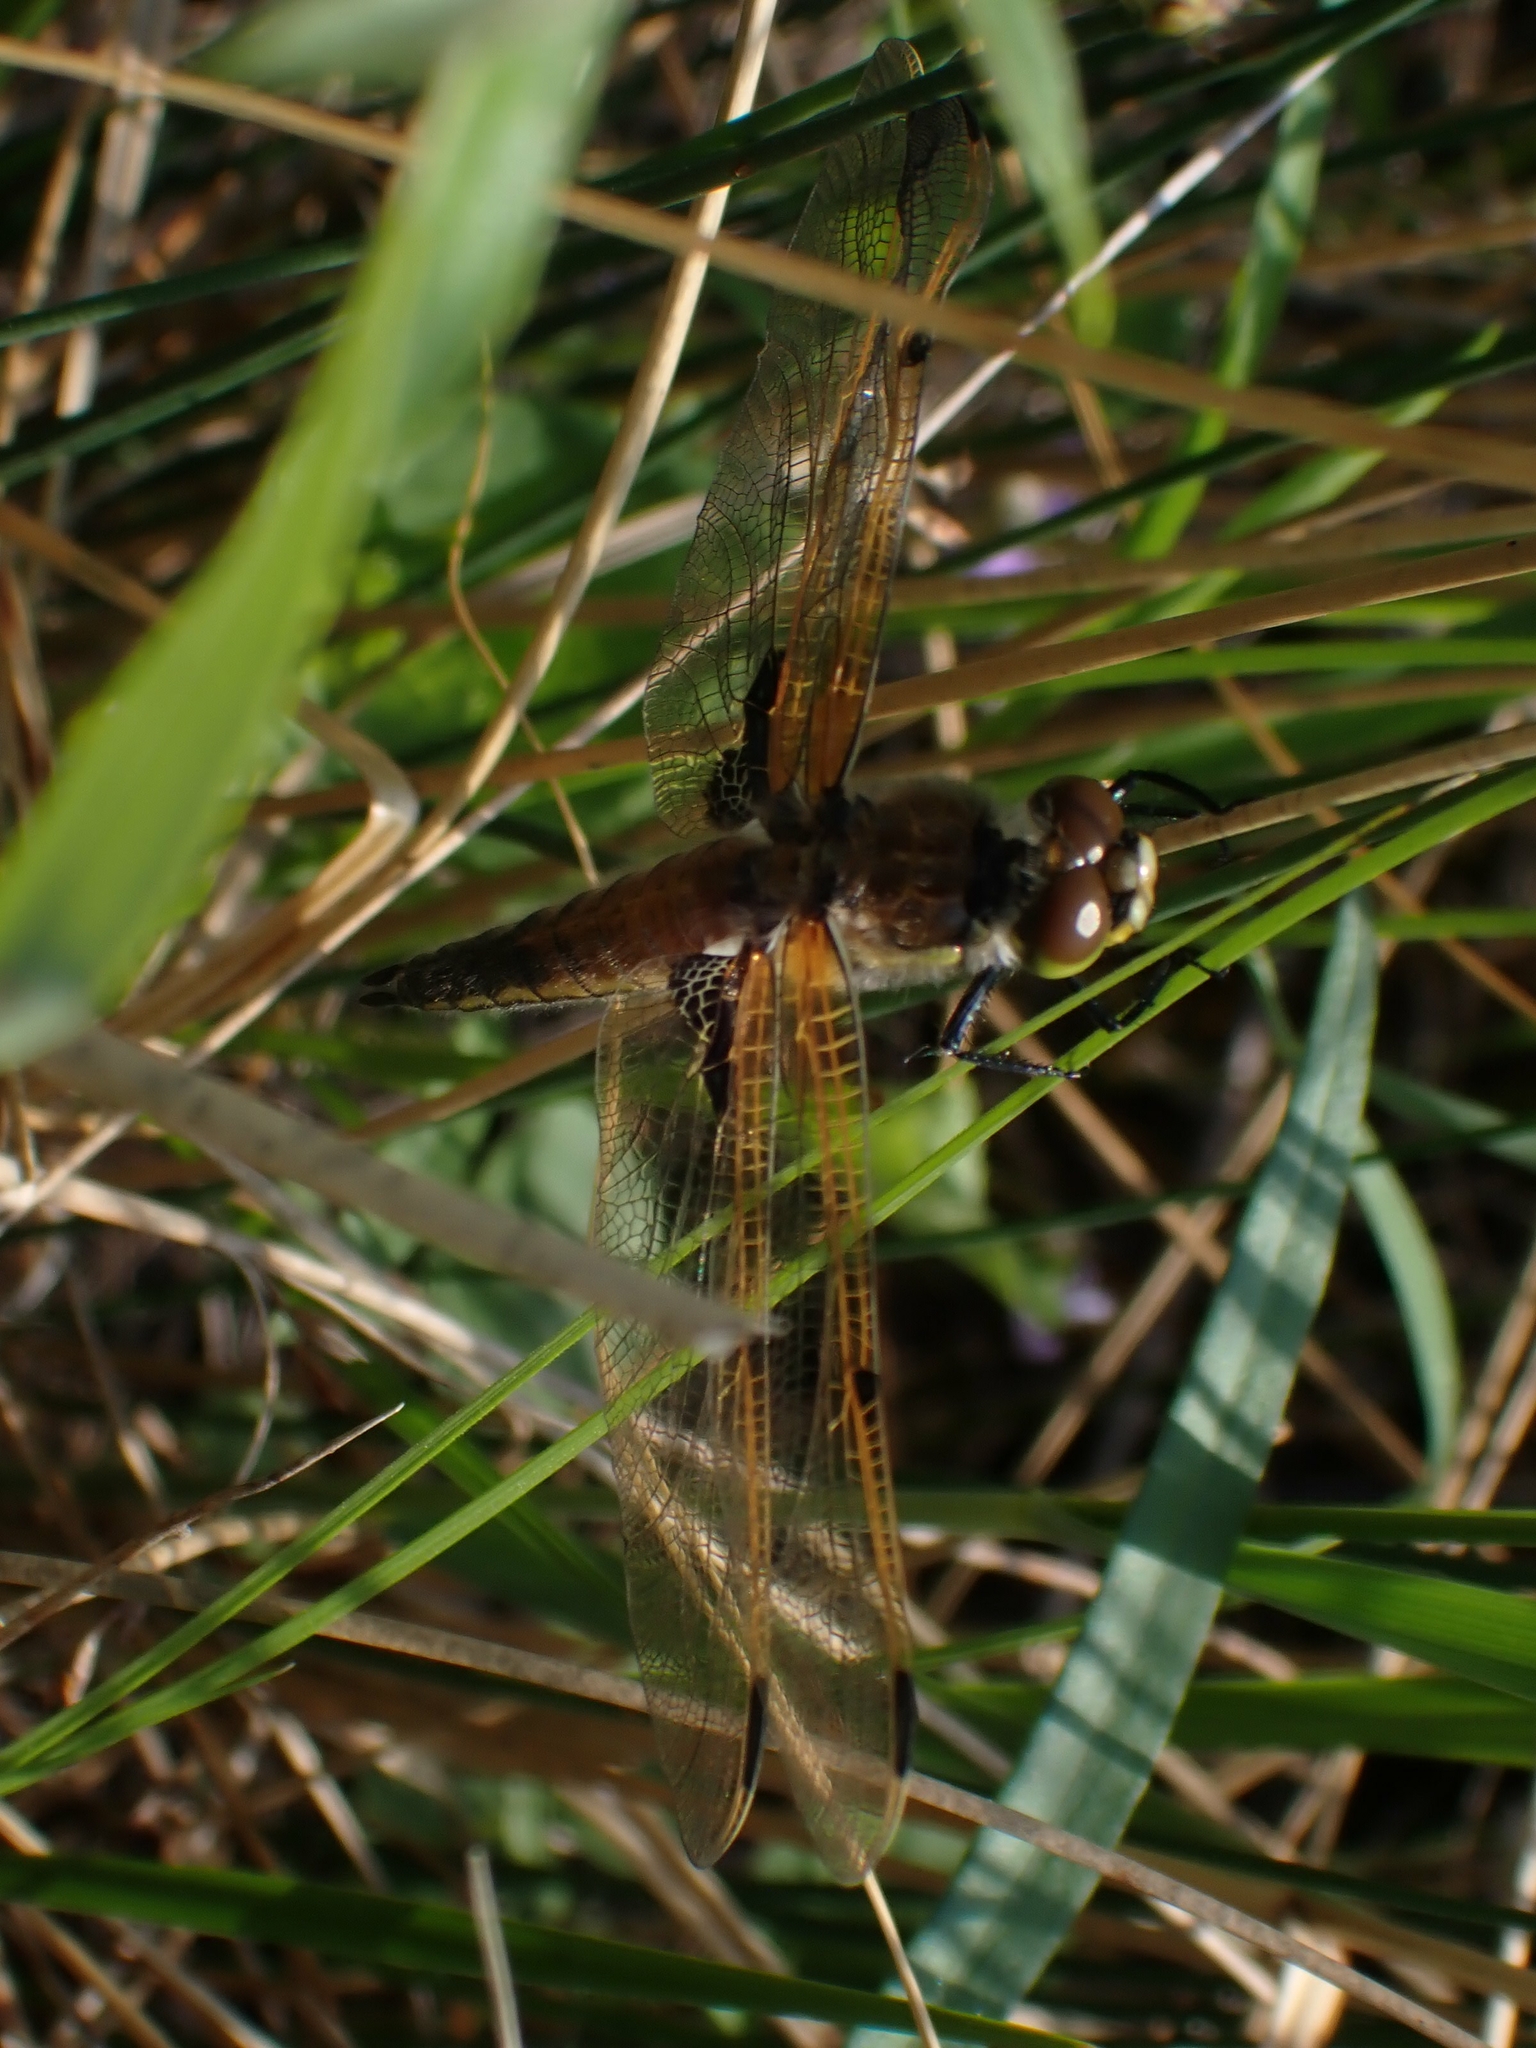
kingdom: Animalia
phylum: Arthropoda
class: Insecta
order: Odonata
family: Libellulidae
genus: Libellula
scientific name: Libellula quadrimaculata
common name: Four-spotted chaser
